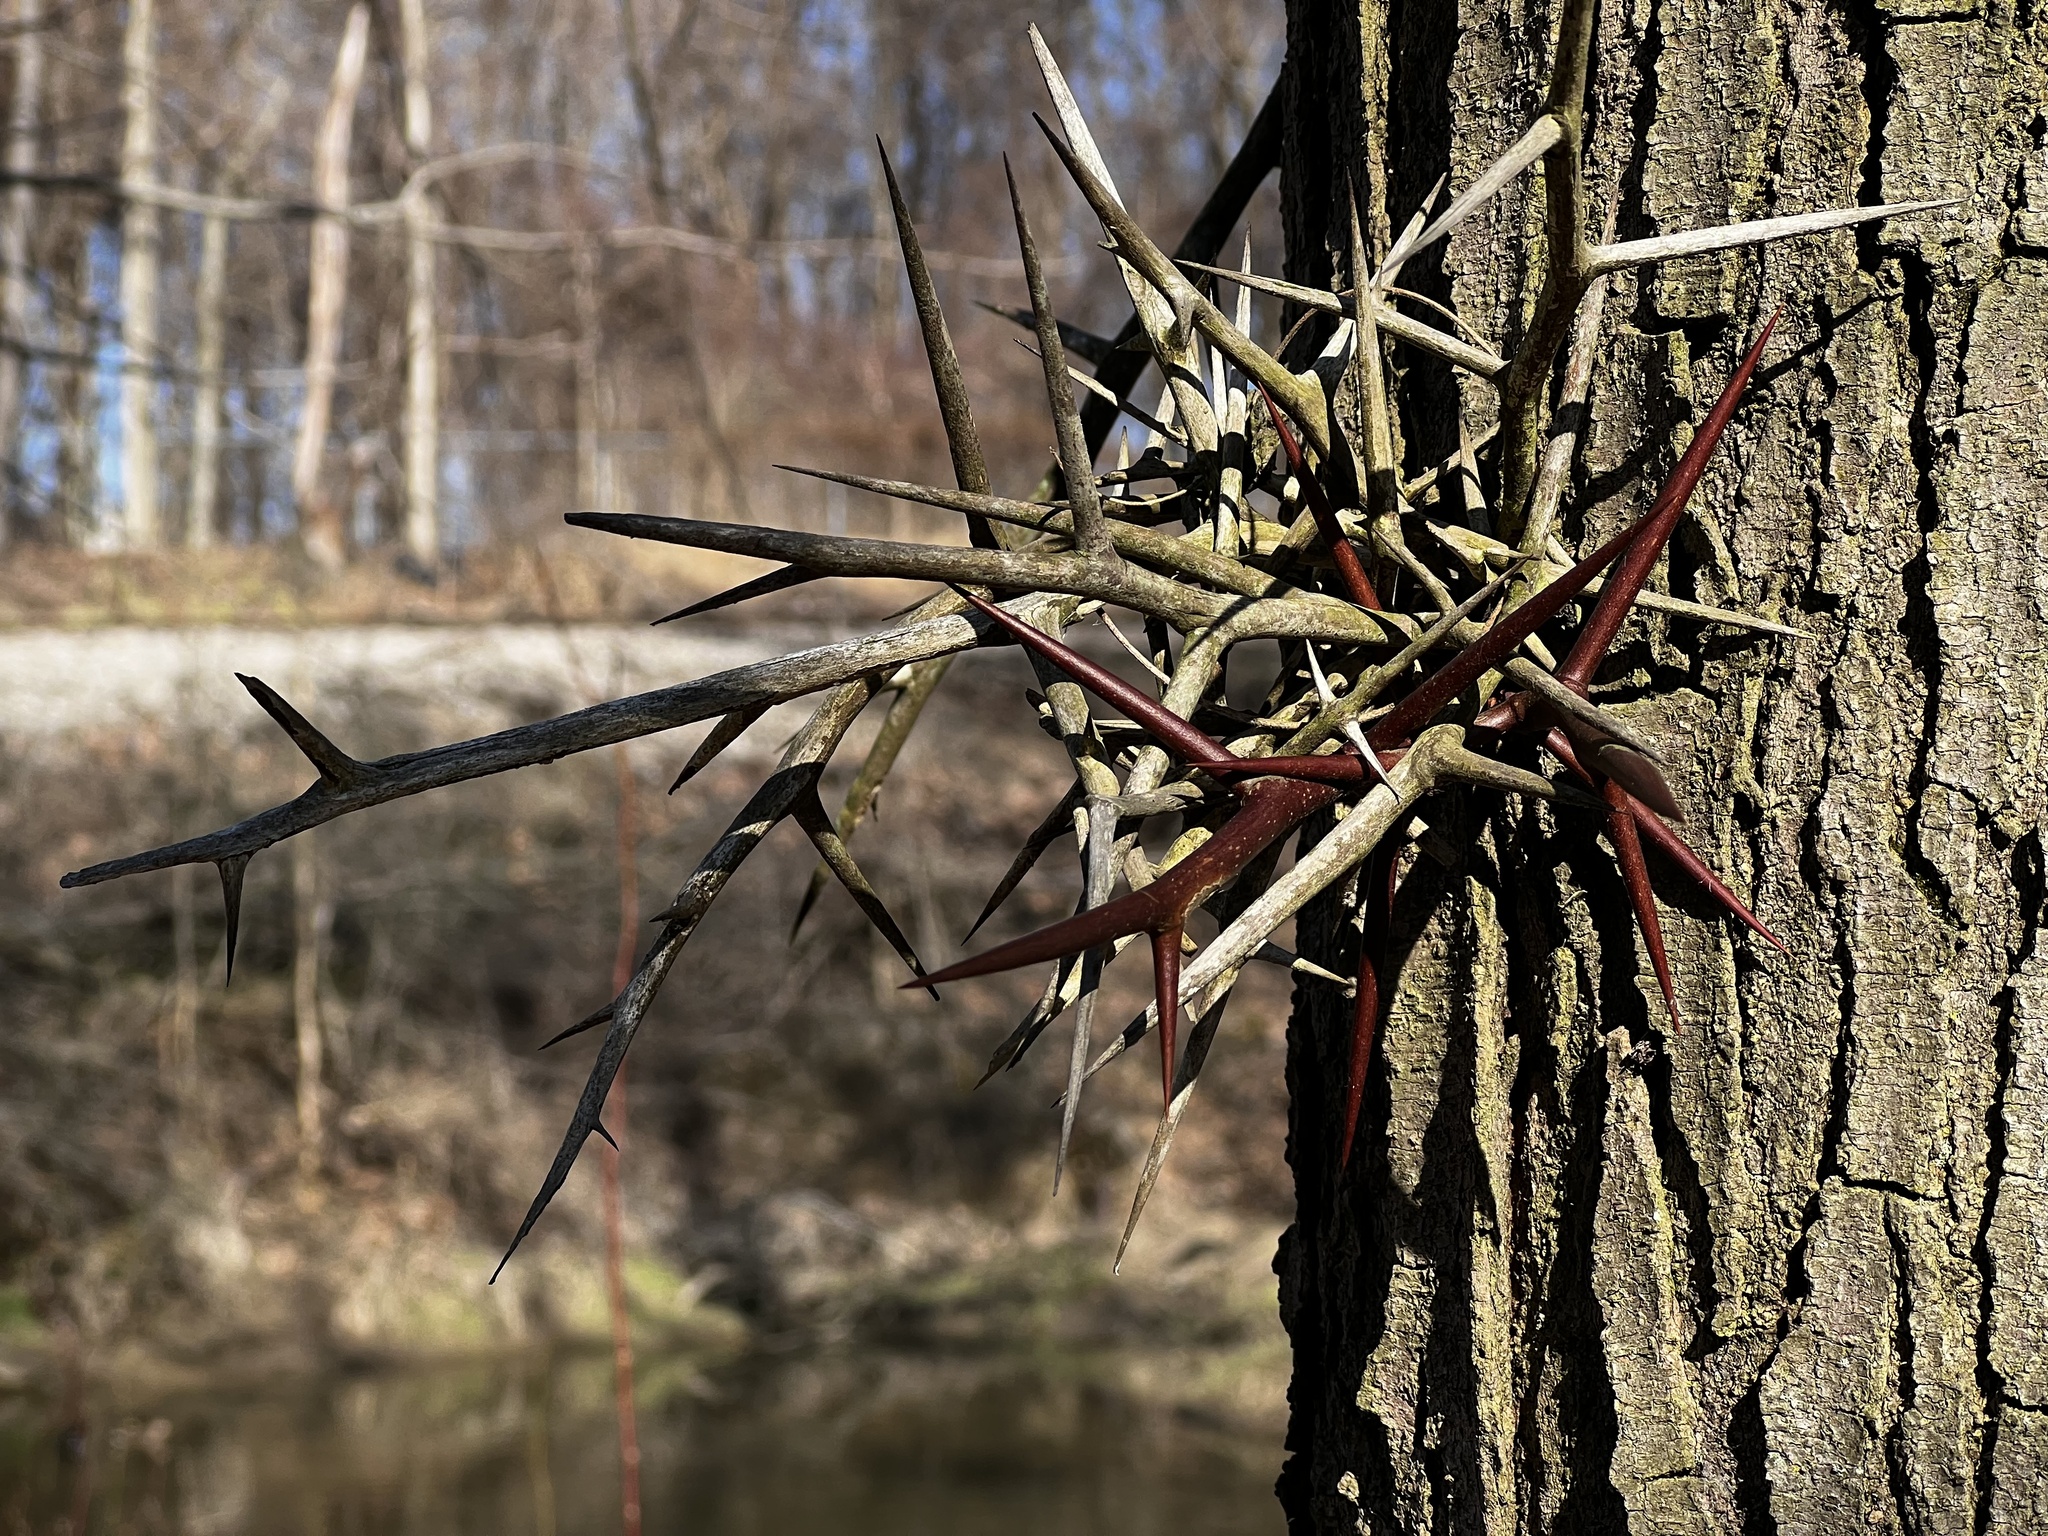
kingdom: Plantae
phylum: Tracheophyta
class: Magnoliopsida
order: Fabales
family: Fabaceae
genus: Gleditsia
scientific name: Gleditsia triacanthos
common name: Common honeylocust
